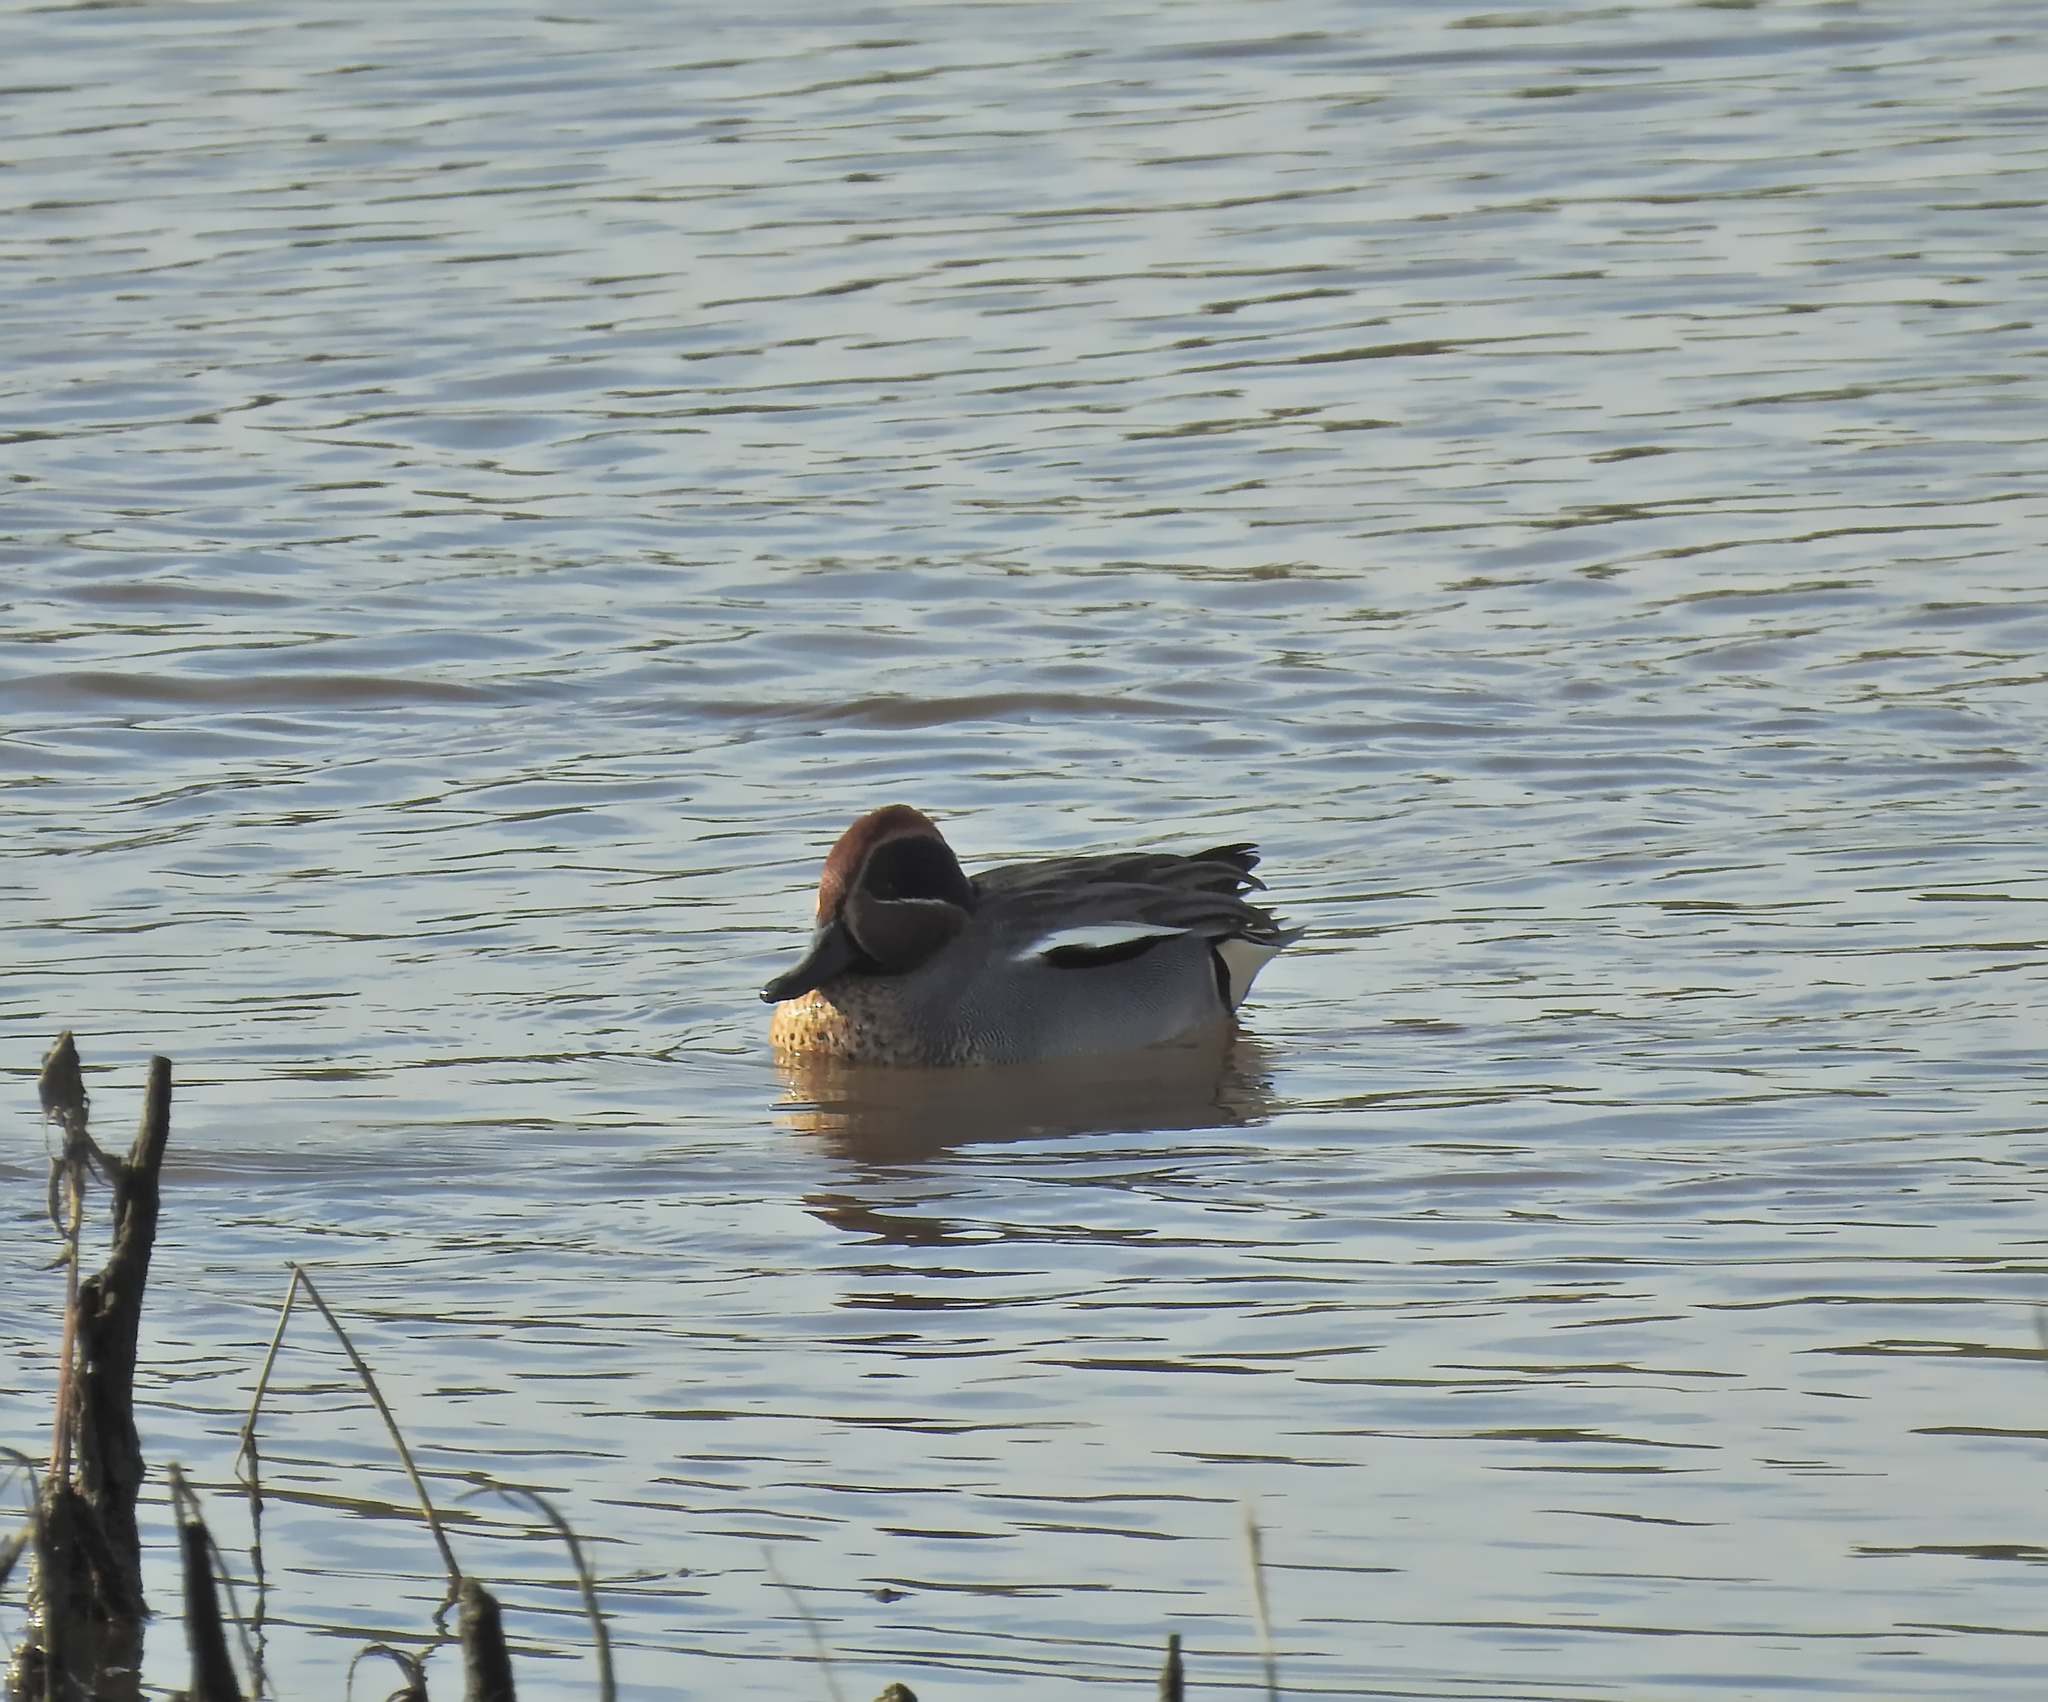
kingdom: Animalia
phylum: Chordata
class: Aves
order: Anseriformes
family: Anatidae
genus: Anas
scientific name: Anas crecca
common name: Eurasian teal
